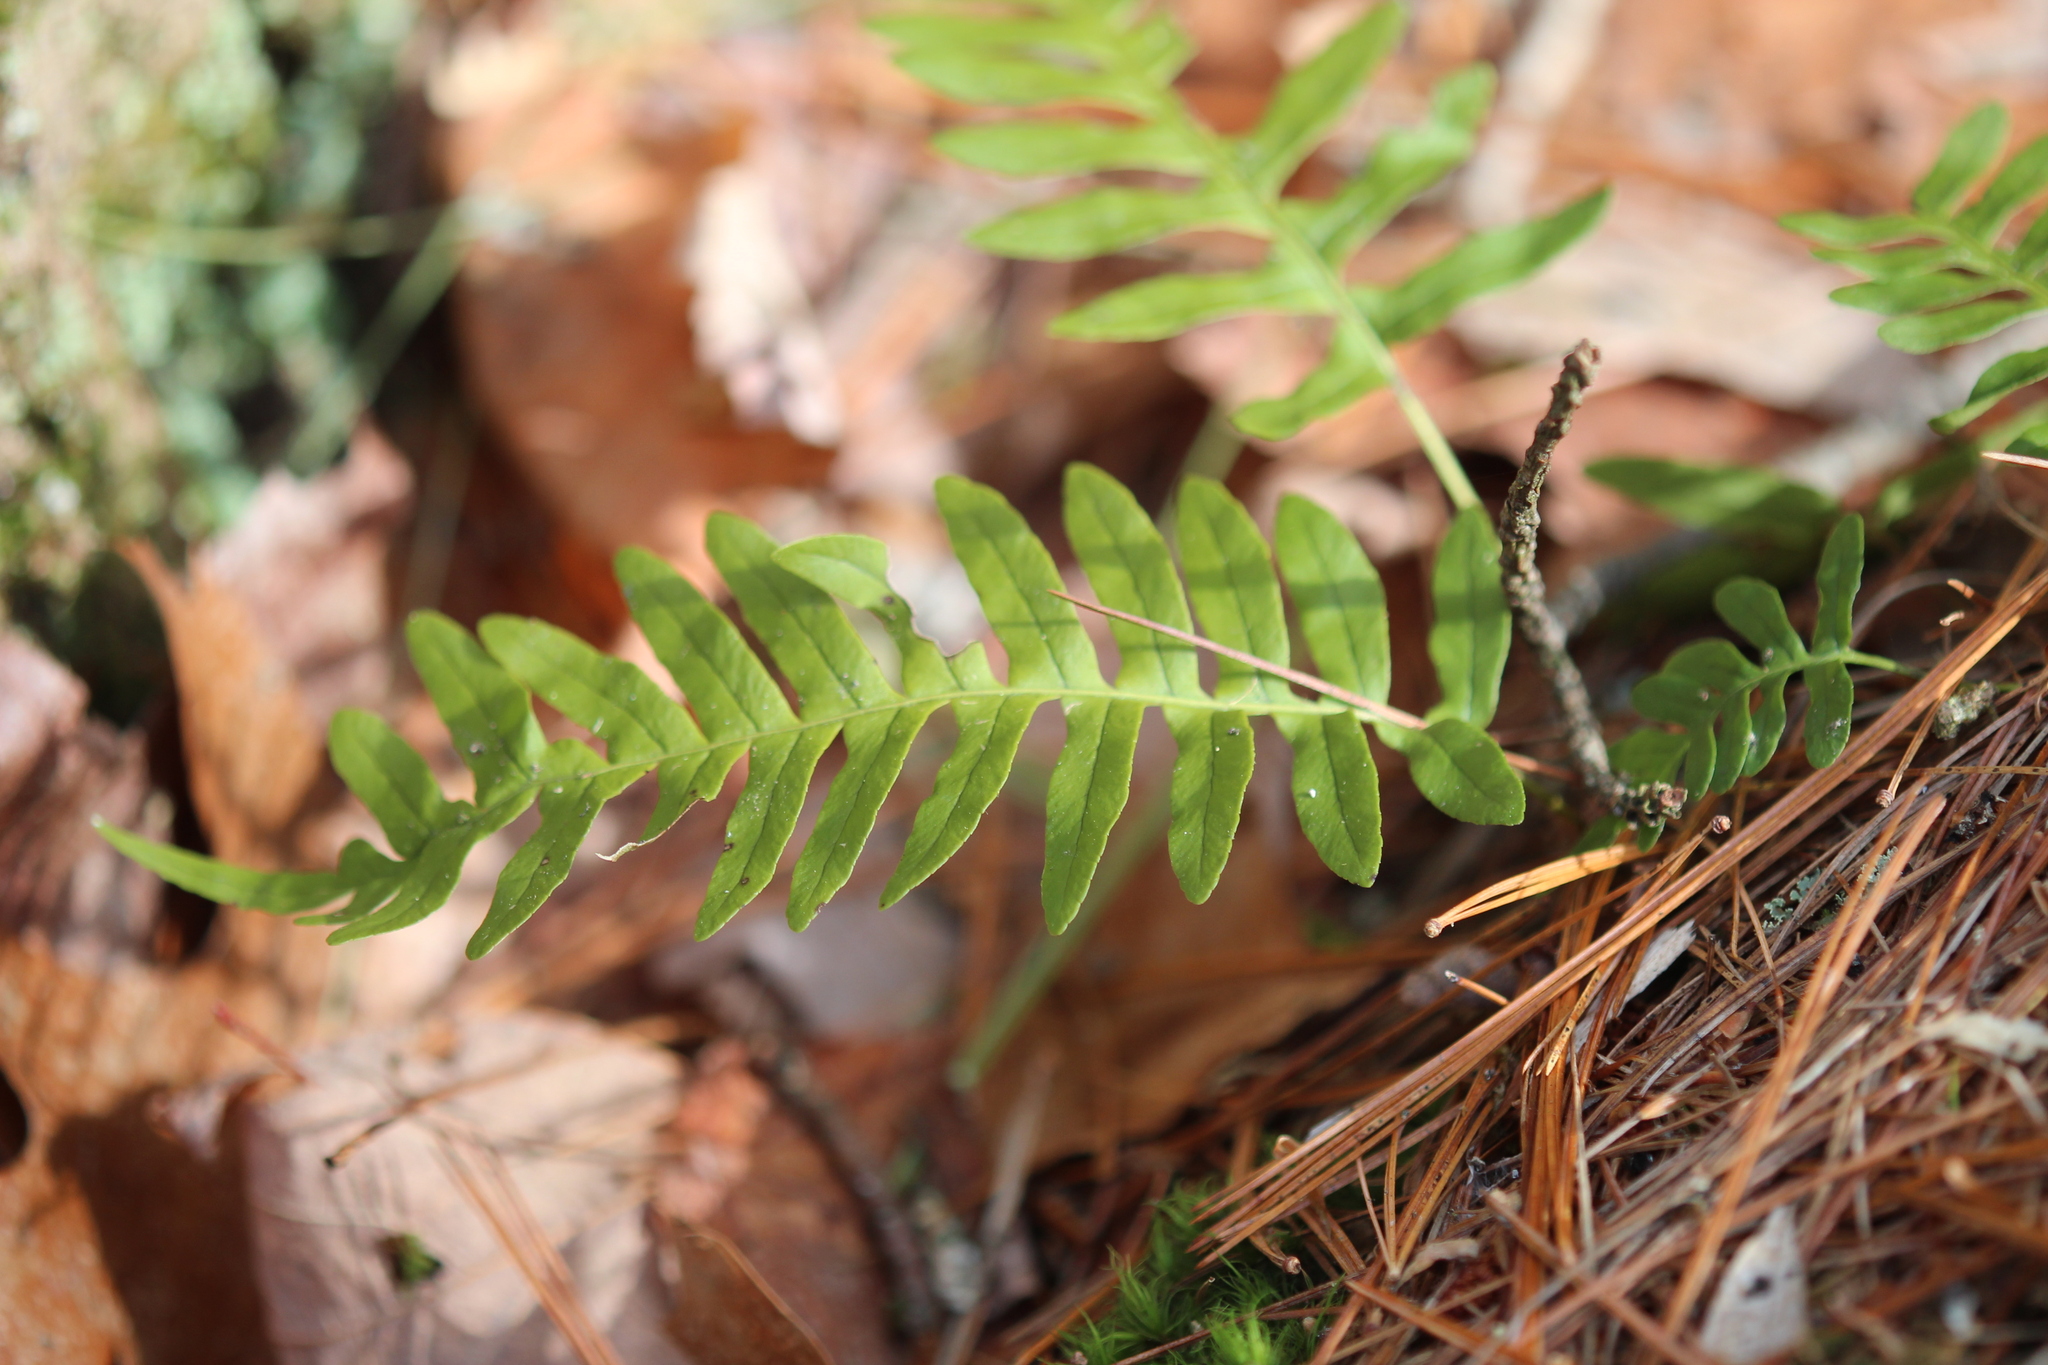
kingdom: Plantae
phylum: Tracheophyta
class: Polypodiopsida
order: Polypodiales
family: Polypodiaceae
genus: Polypodium
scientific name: Polypodium virginianum
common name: American wall fern
